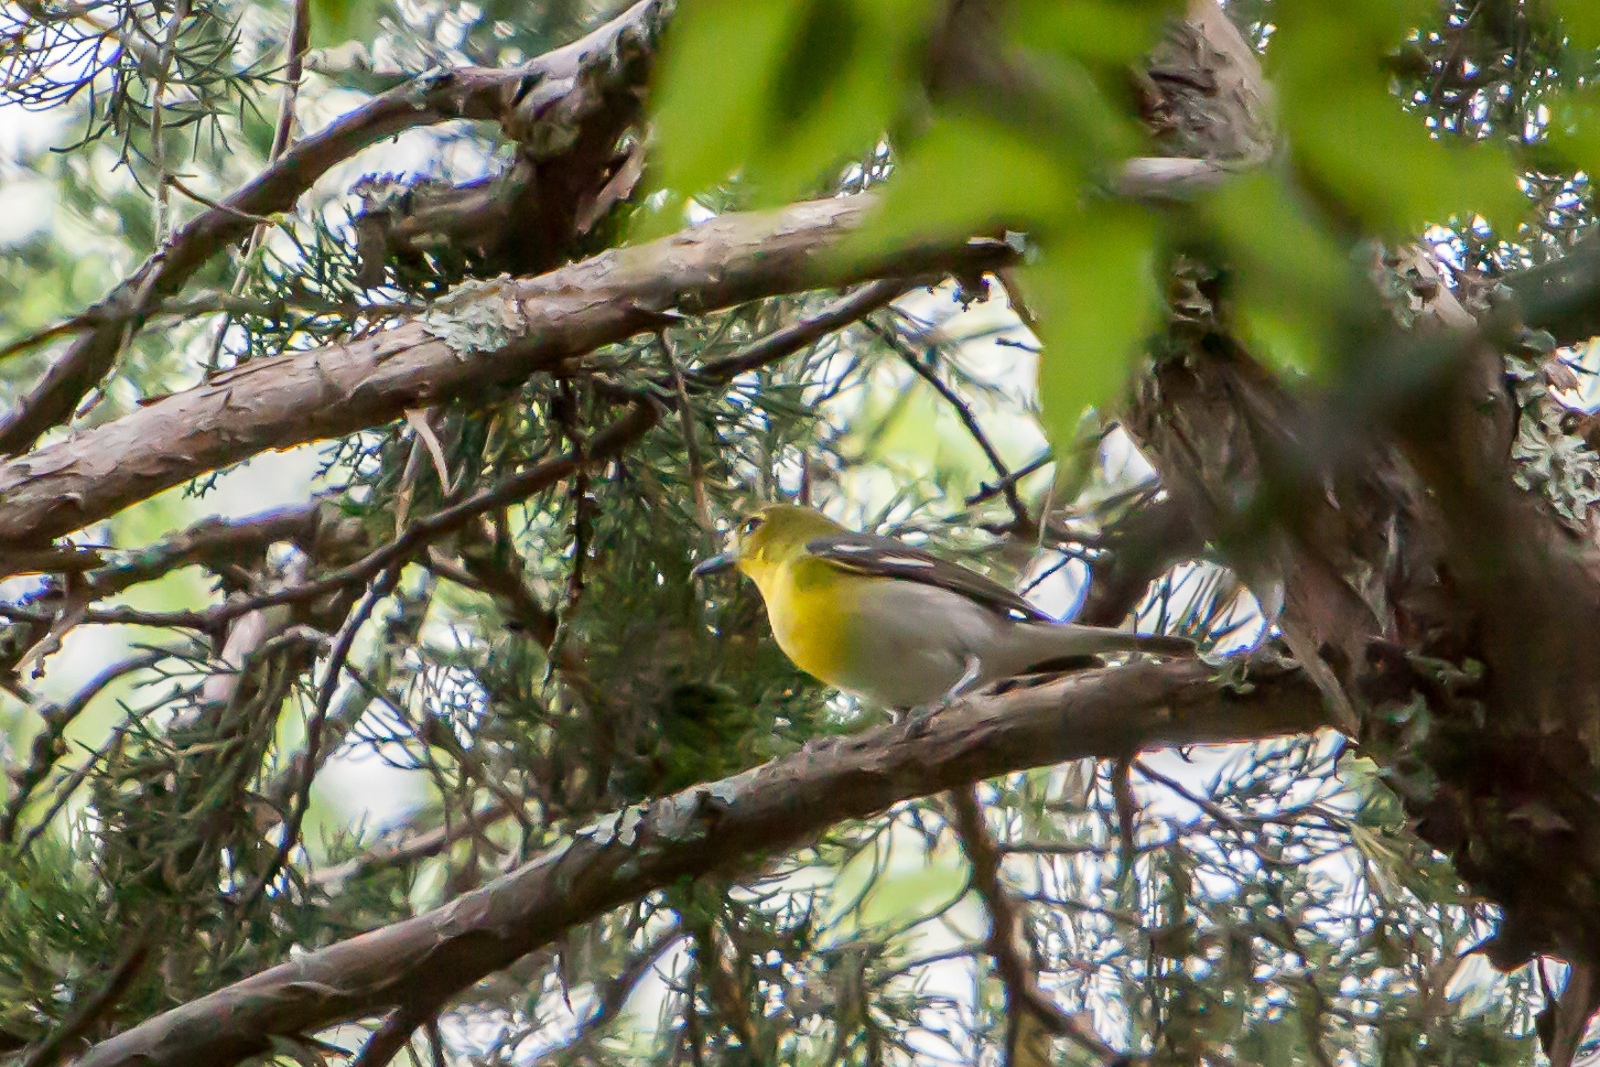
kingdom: Animalia
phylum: Chordata
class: Aves
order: Passeriformes
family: Vireonidae
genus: Vireo
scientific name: Vireo flavifrons
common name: Yellow-throated vireo
